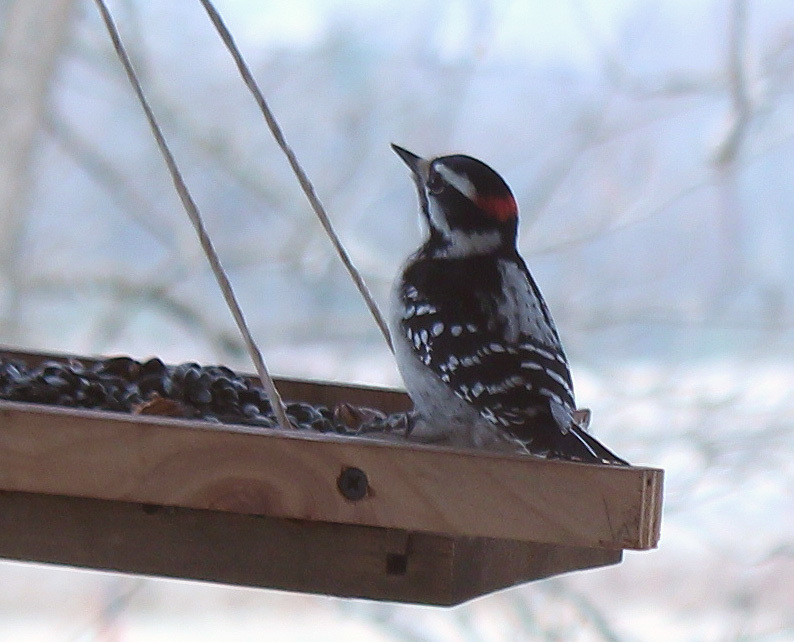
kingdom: Animalia
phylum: Chordata
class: Aves
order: Piciformes
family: Picidae
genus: Dryobates
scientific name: Dryobates pubescens
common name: Downy woodpecker
